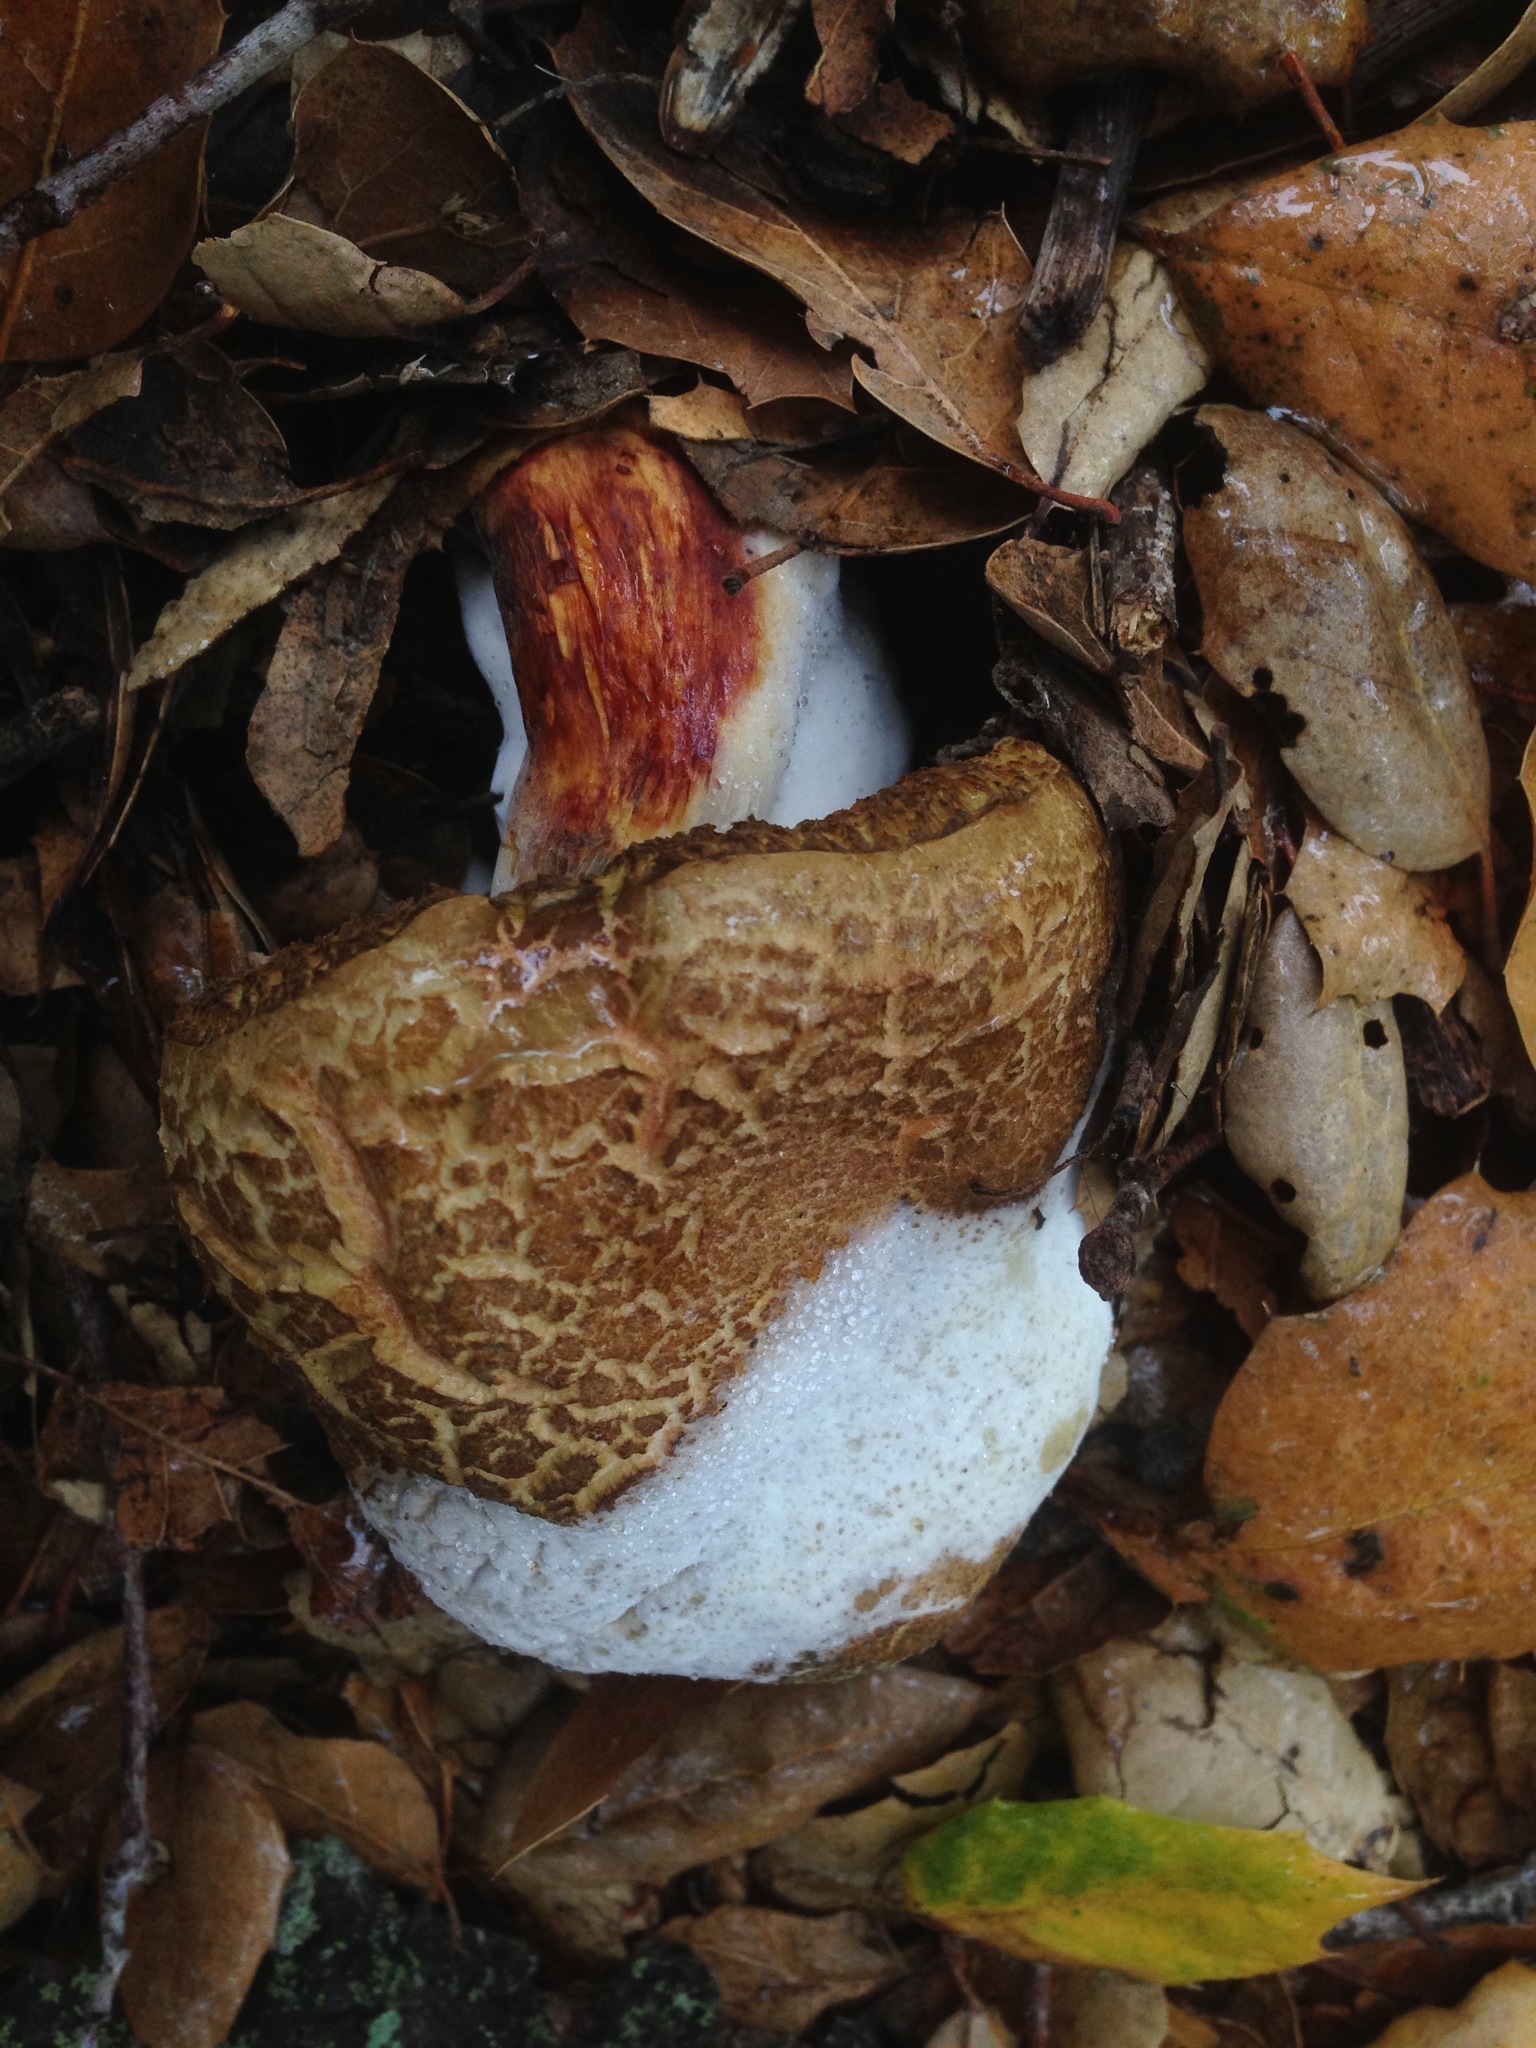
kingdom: Fungi
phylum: Ascomycota
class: Sordariomycetes
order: Hypocreales
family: Hypocreaceae
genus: Hypomyces
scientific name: Hypomyces chrysospermus
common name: Bolete mould
